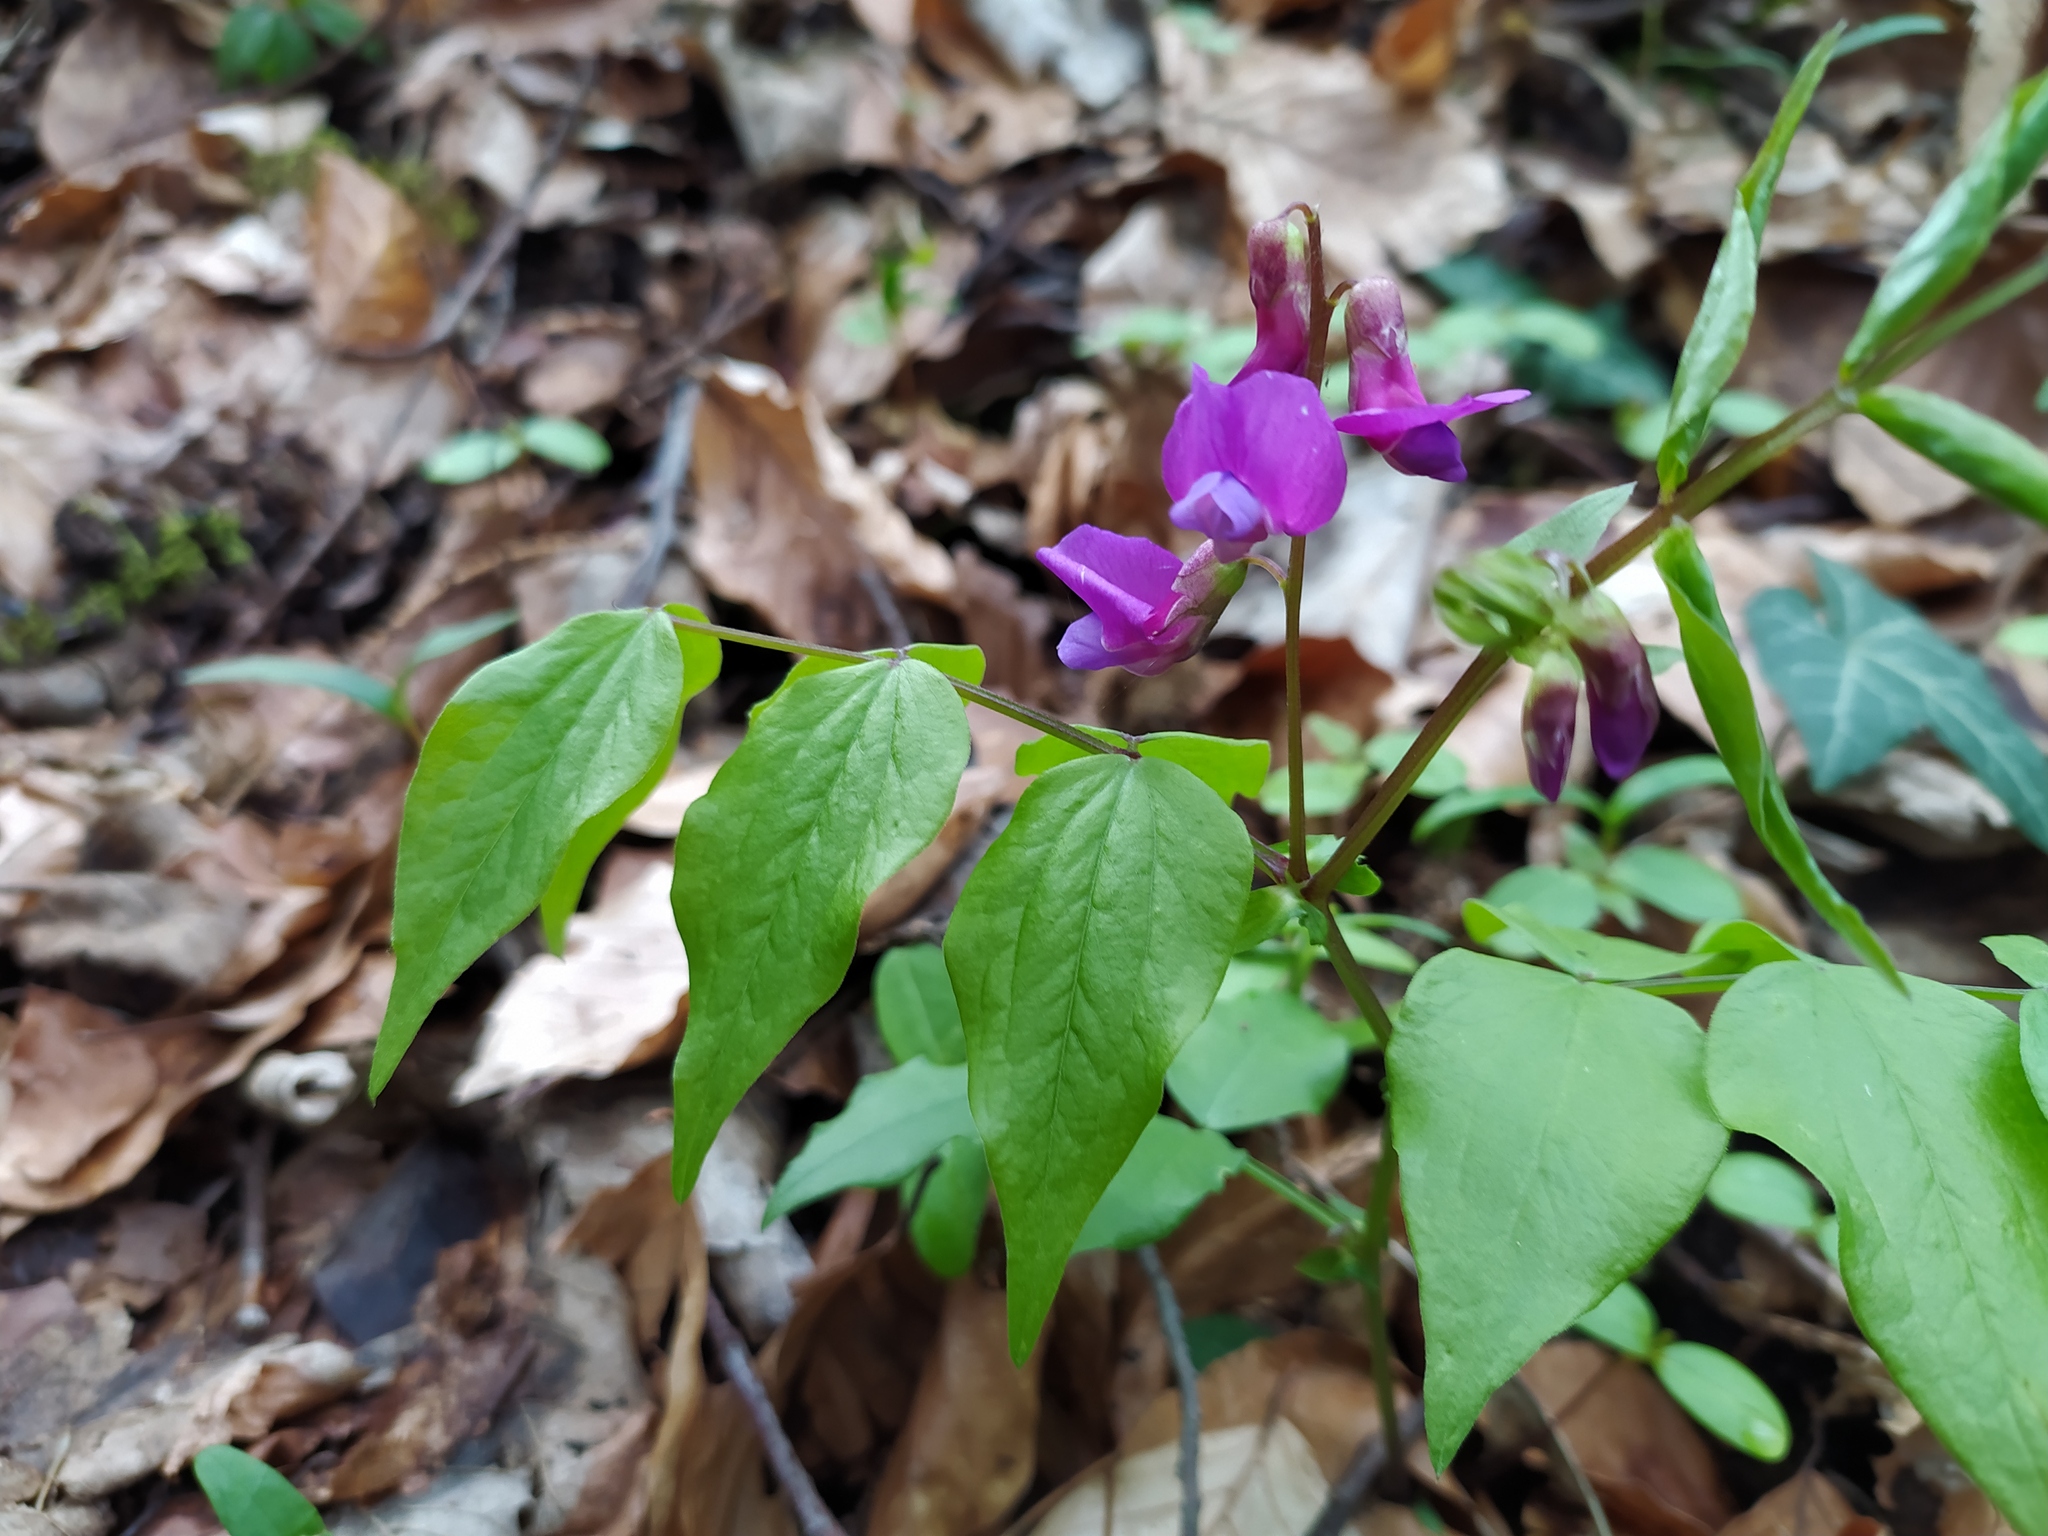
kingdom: Plantae
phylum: Tracheophyta
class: Magnoliopsida
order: Fabales
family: Fabaceae
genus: Lathyrus
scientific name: Lathyrus vernus
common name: Spring pea
